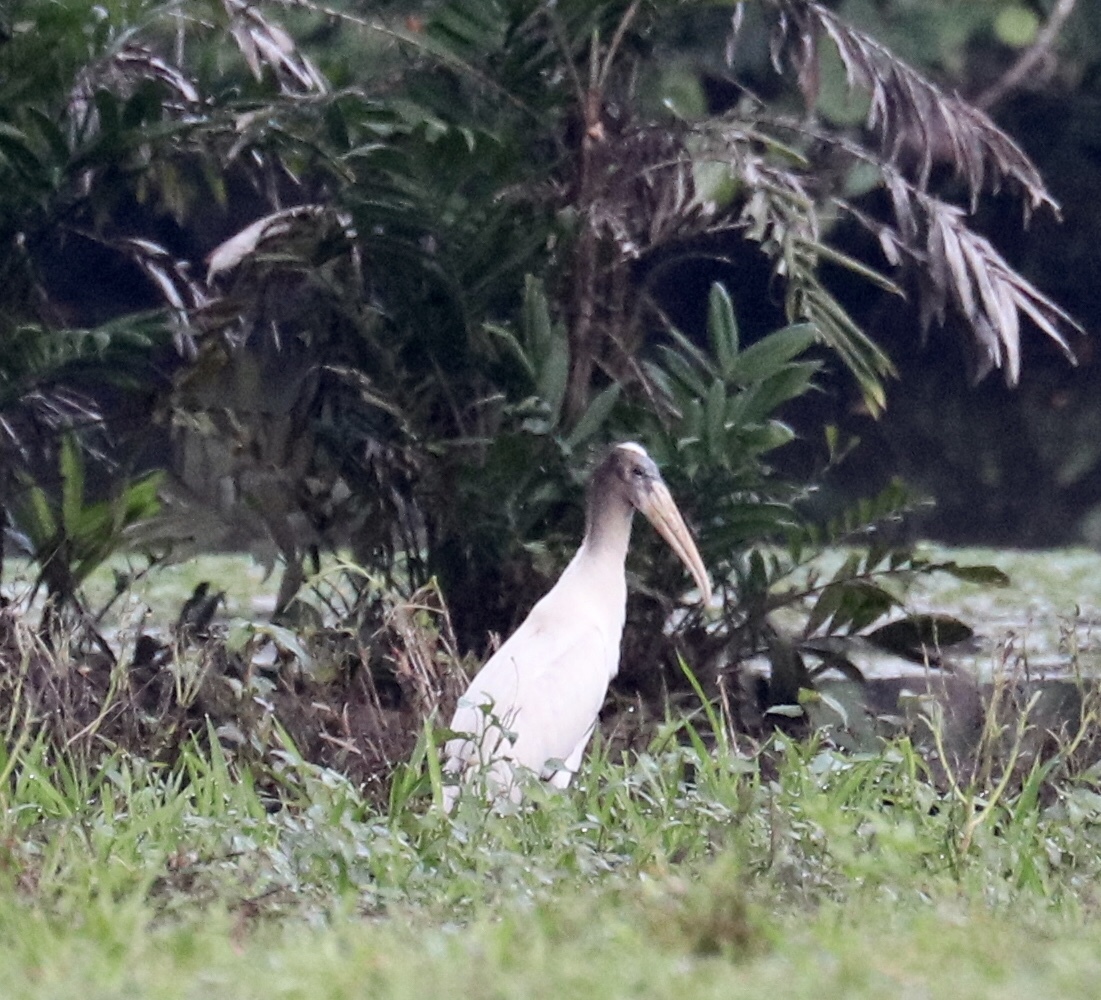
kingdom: Animalia
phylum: Chordata
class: Aves
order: Ciconiiformes
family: Ciconiidae
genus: Mycteria
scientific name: Mycteria americana
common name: Wood stork
